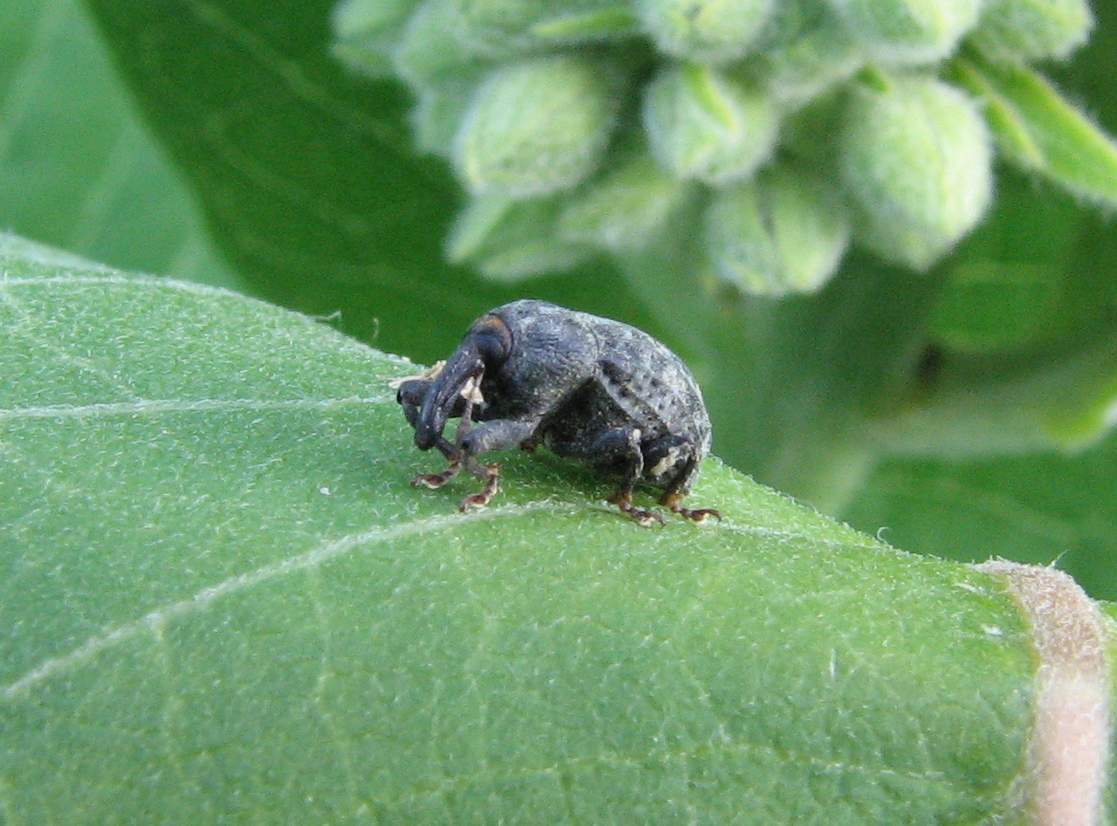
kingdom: Animalia
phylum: Arthropoda
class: Insecta
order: Coleoptera
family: Curculionidae
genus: Rhyssomatus
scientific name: Rhyssomatus lineaticollis
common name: Milkweed stem weevil
